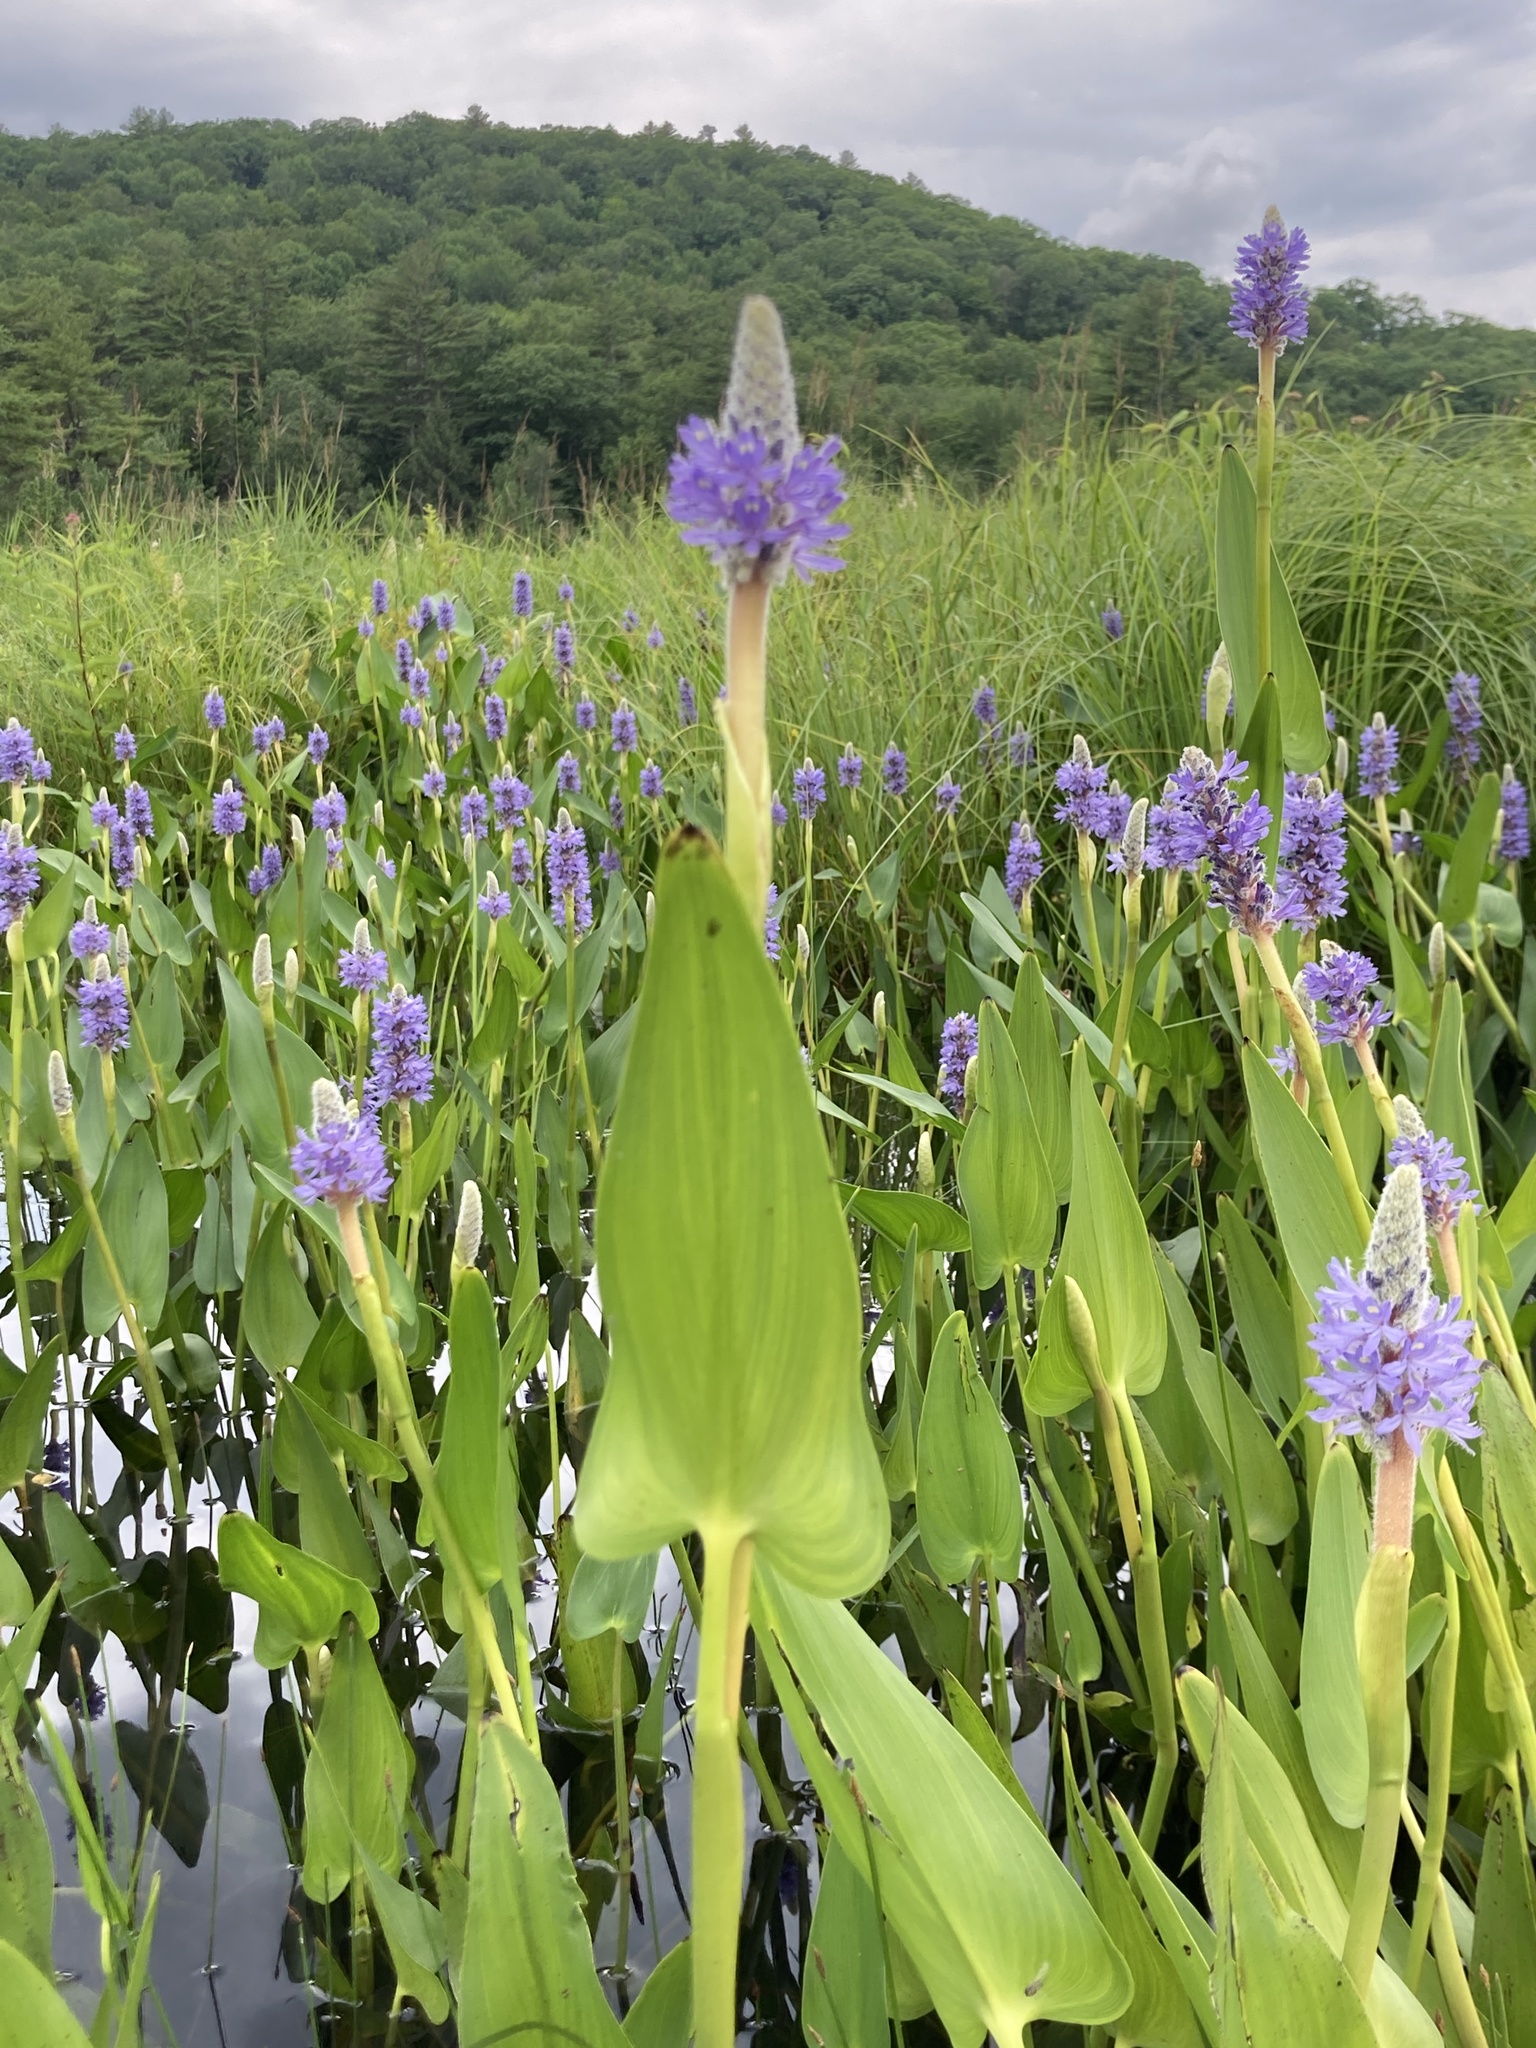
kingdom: Plantae
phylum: Tracheophyta
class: Liliopsida
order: Commelinales
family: Pontederiaceae
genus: Pontederia
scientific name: Pontederia cordata
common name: Pickerelweed
